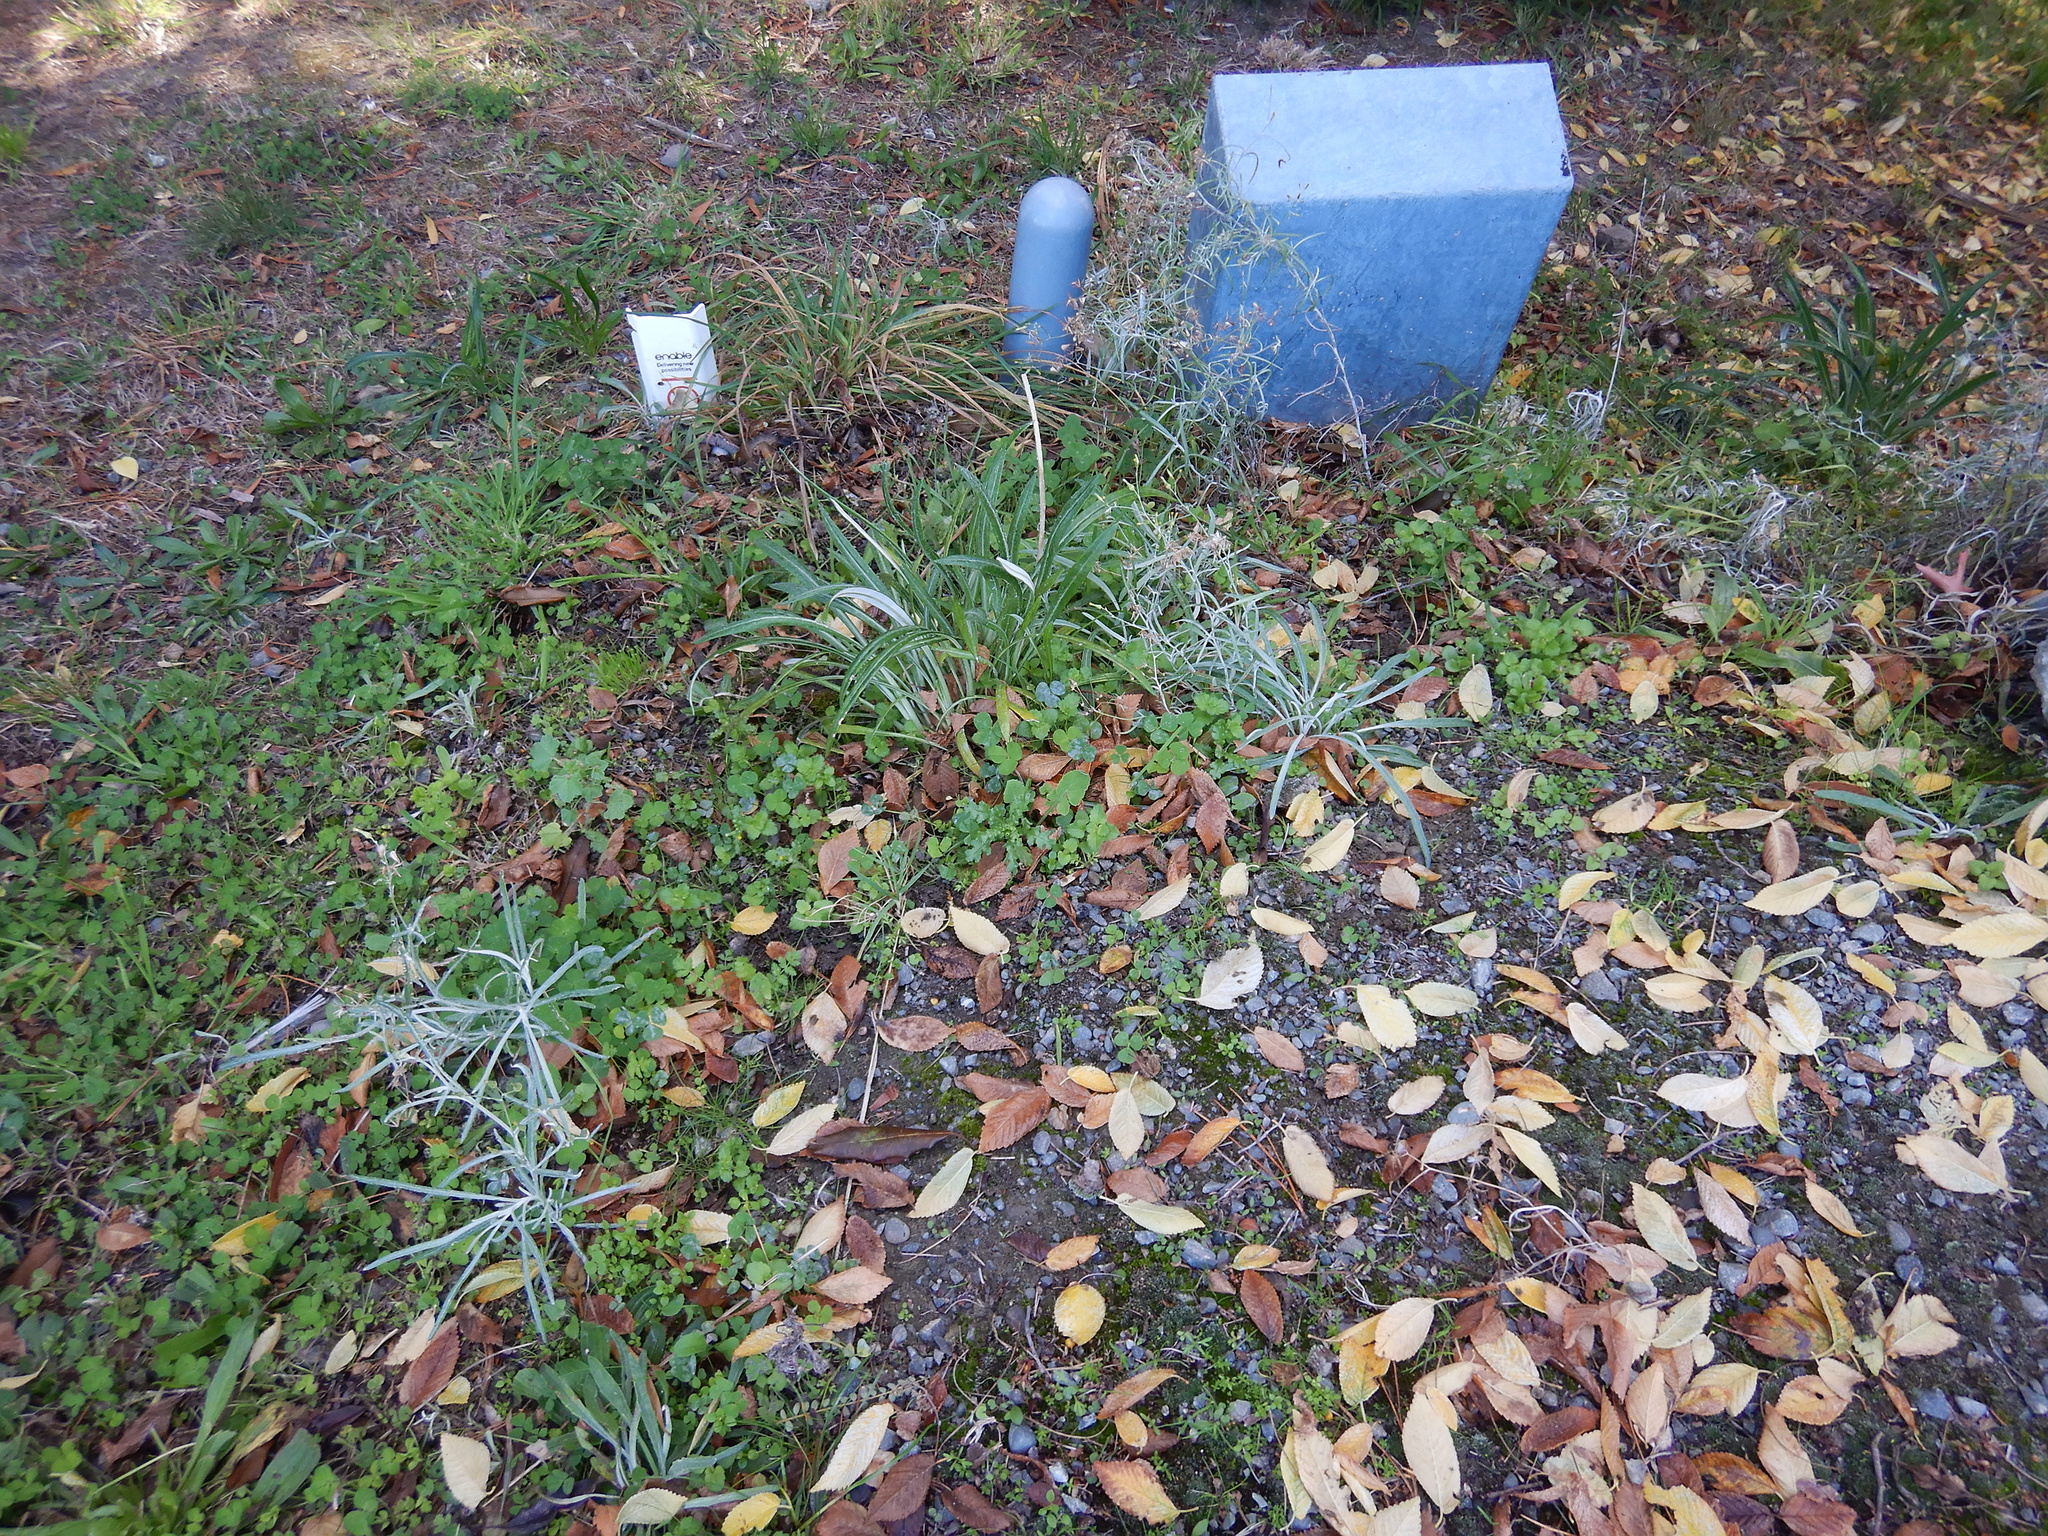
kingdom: Plantae
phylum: Tracheophyta
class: Magnoliopsida
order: Asterales
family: Asteraceae
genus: Senecio
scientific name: Senecio quadridentatus
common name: Cotton fireweed
